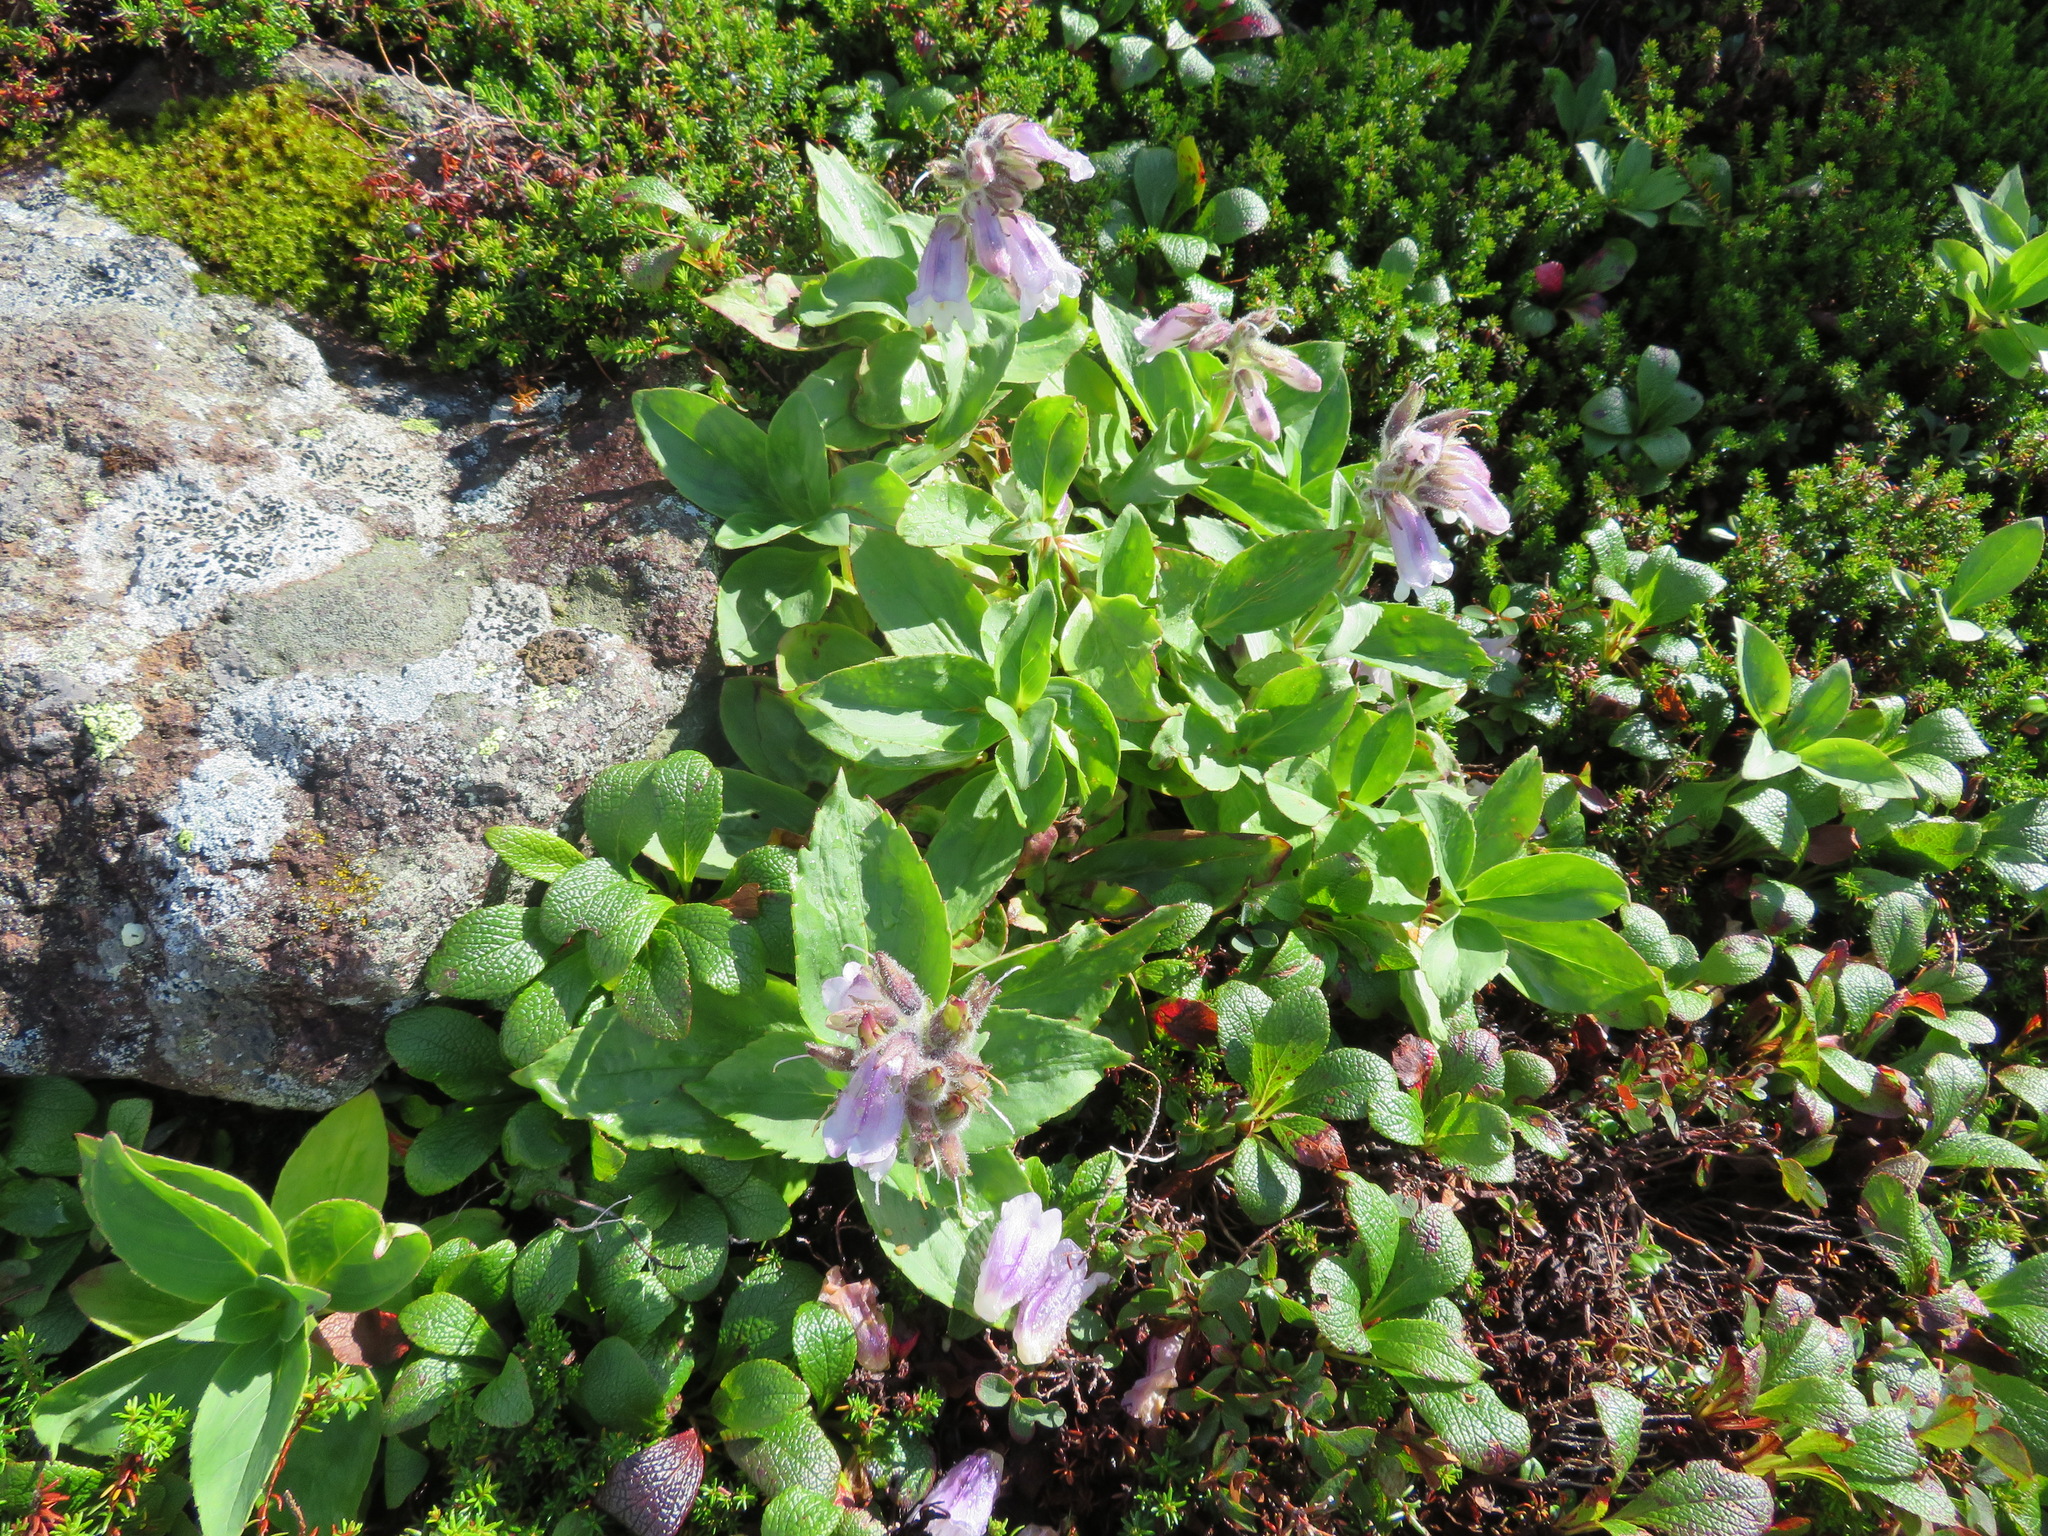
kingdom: Plantae
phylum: Tracheophyta
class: Magnoliopsida
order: Lamiales
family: Plantaginaceae
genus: Pennellianthus
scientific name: Pennellianthus frutescens
